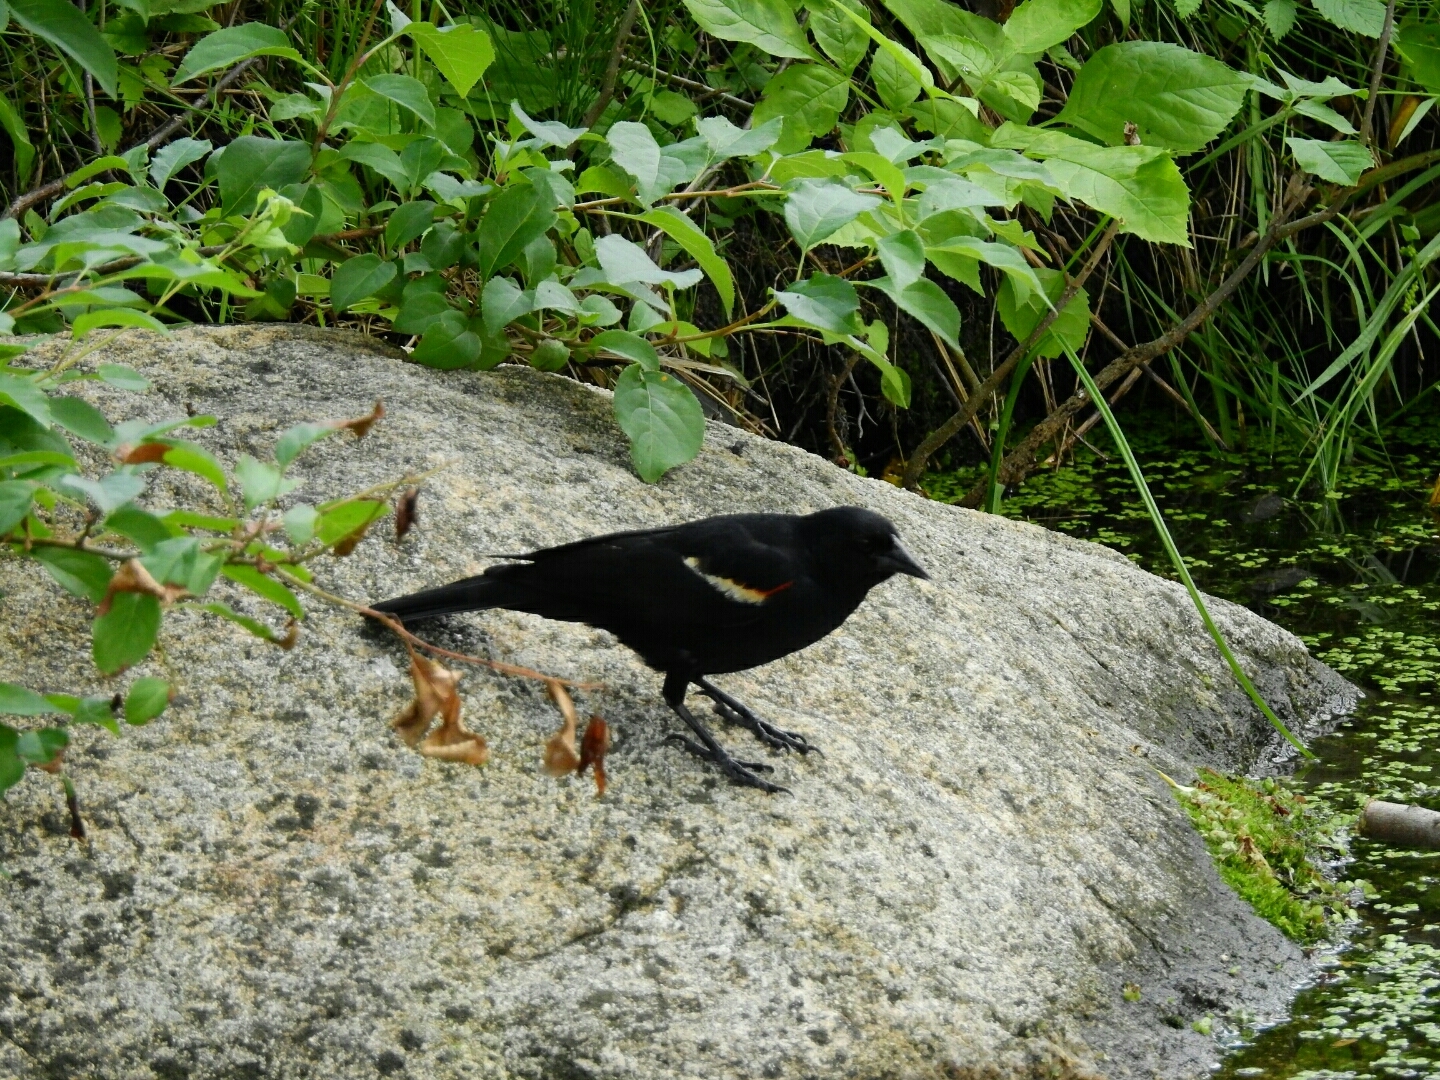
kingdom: Animalia
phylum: Chordata
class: Aves
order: Passeriformes
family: Icteridae
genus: Agelaius
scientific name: Agelaius phoeniceus
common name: Red-winged blackbird
